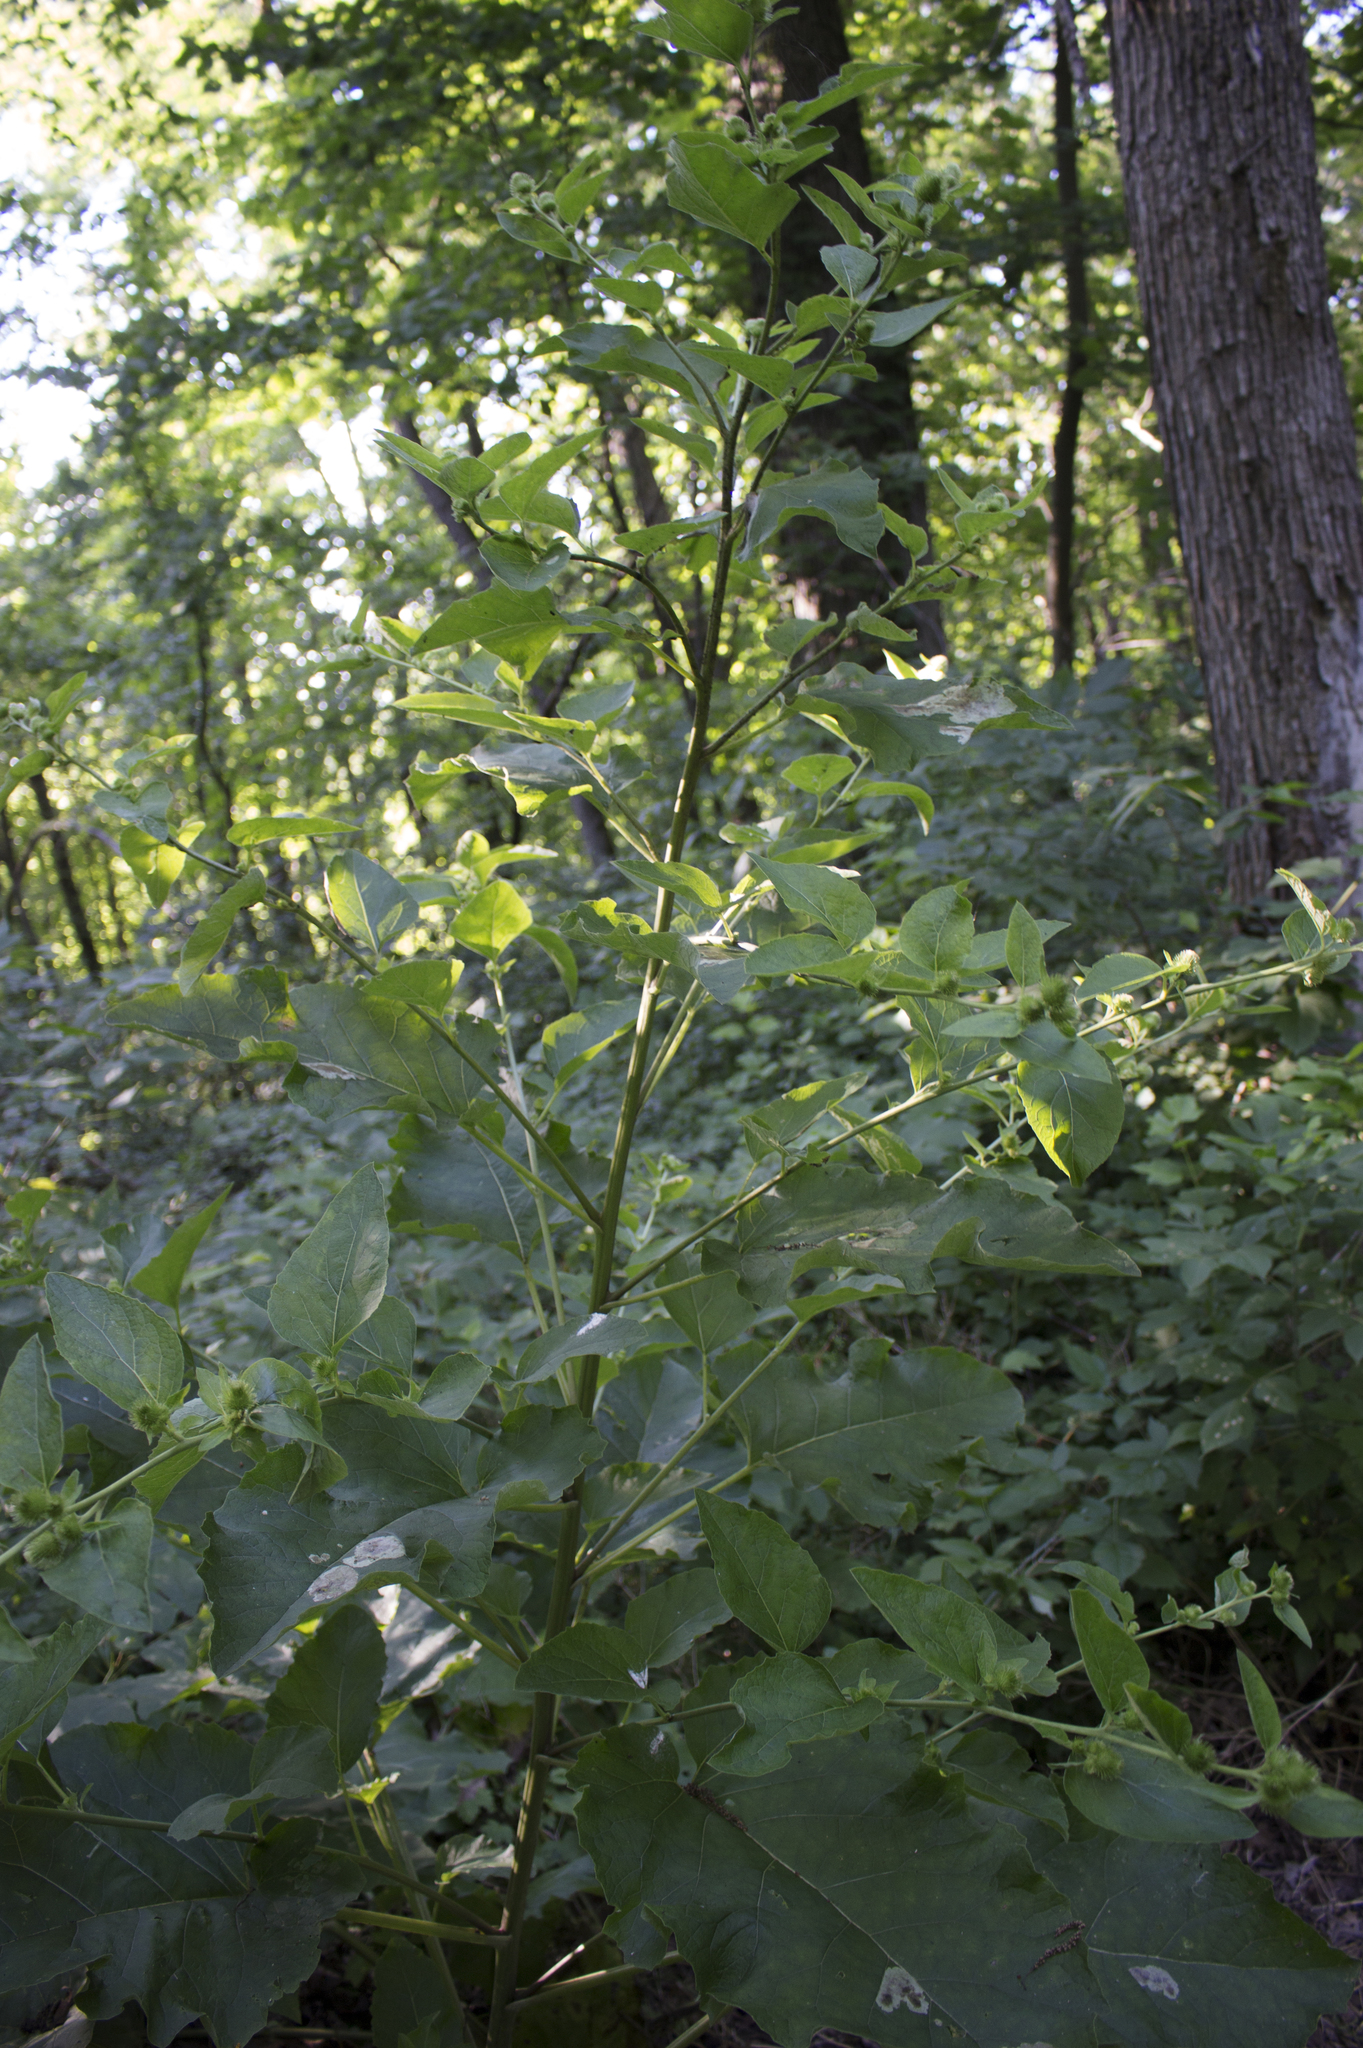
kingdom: Plantae
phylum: Tracheophyta
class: Magnoliopsida
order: Asterales
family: Asteraceae
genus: Arctium
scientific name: Arctium minus
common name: Lesser burdock
